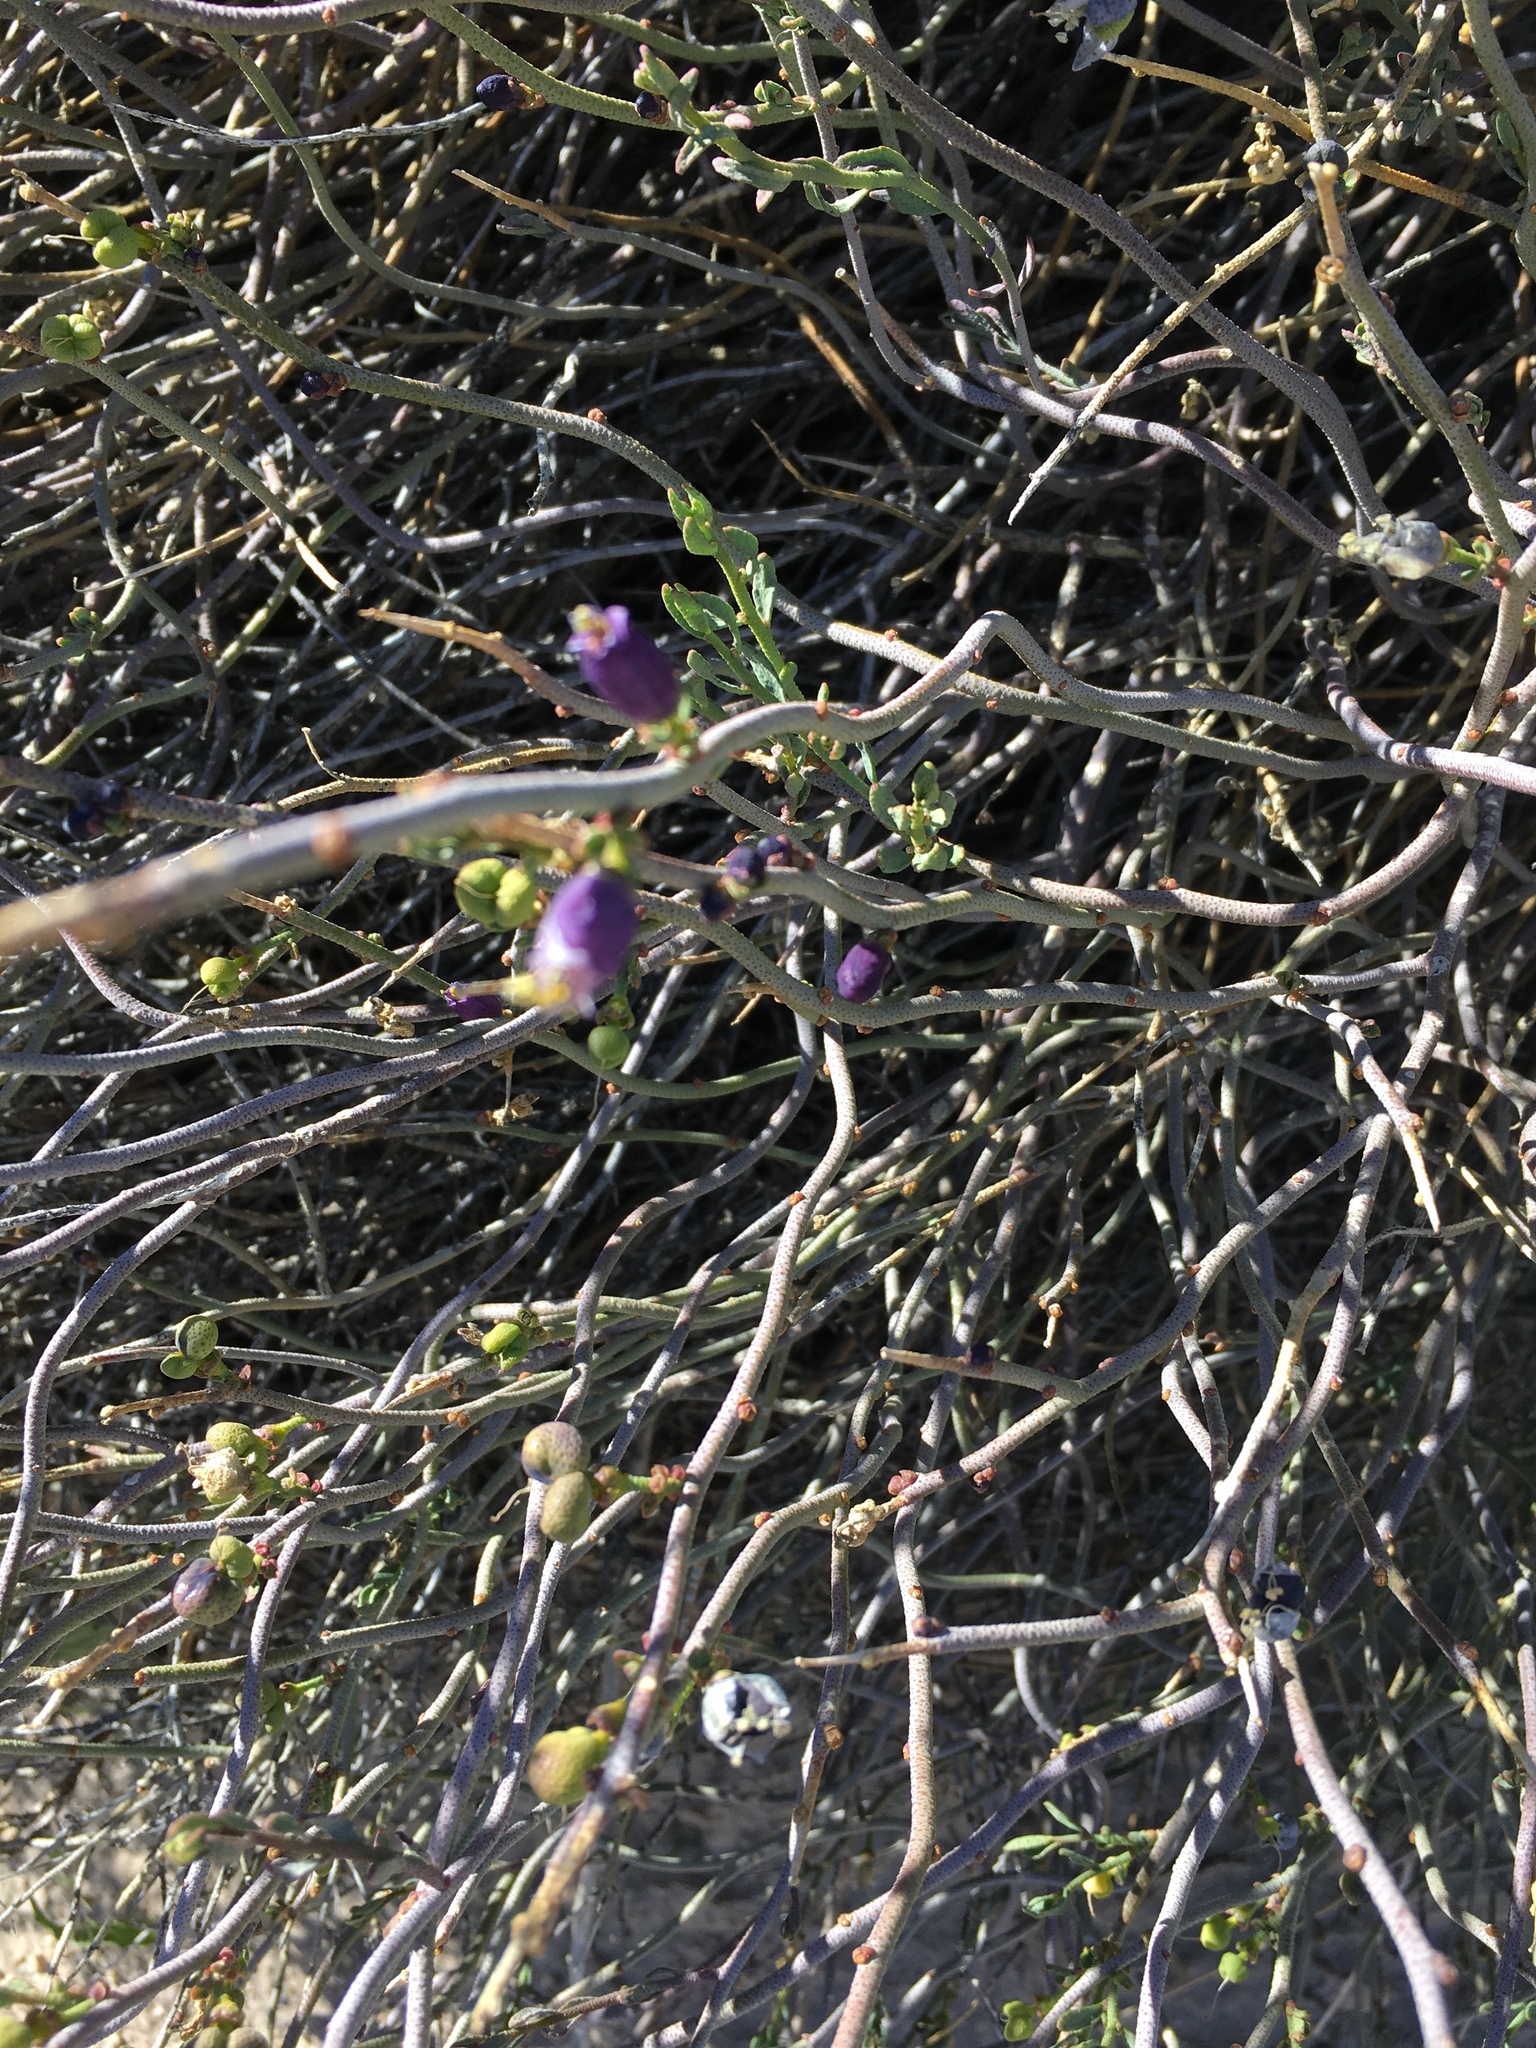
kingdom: Plantae
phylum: Tracheophyta
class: Magnoliopsida
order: Sapindales
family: Rutaceae
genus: Thamnosma
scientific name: Thamnosma montana
